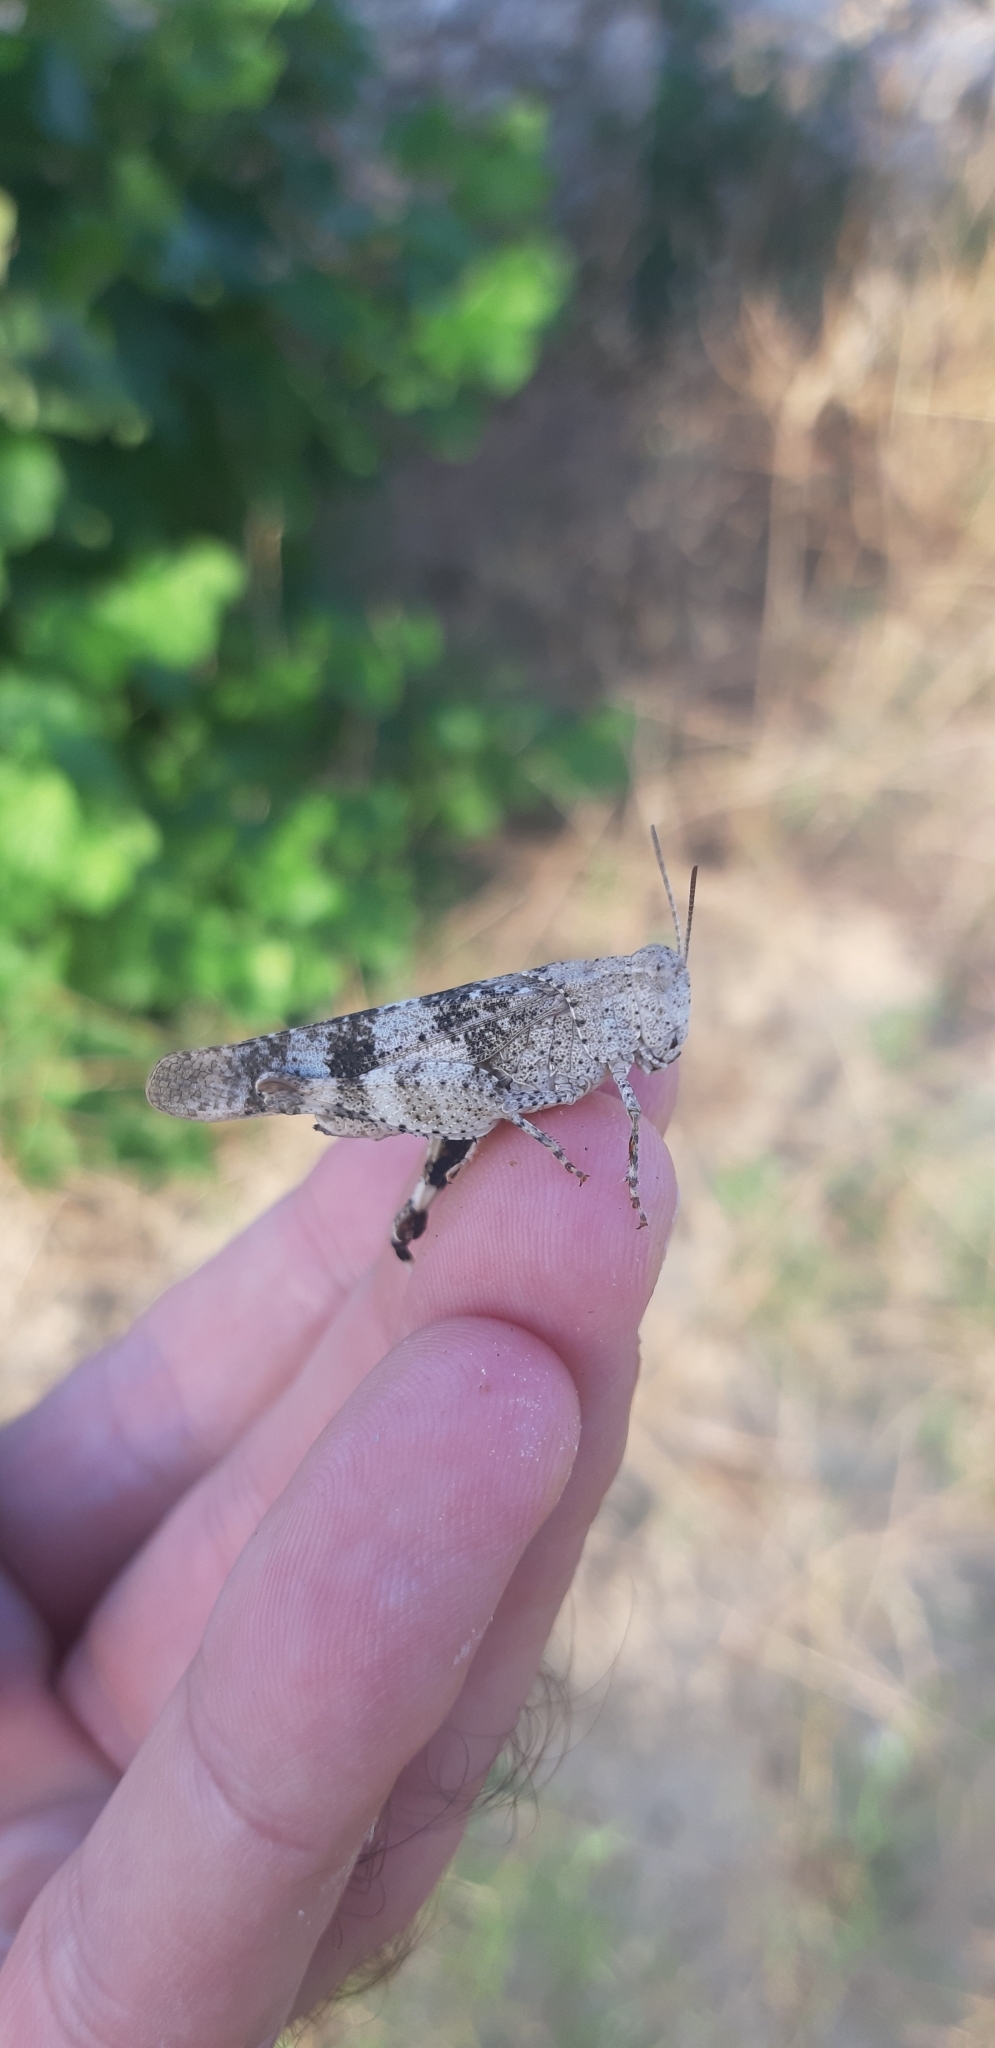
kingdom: Animalia
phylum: Arthropoda
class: Insecta
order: Orthoptera
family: Acrididae
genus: Oedipoda
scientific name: Oedipoda germanica
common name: Red band-winged grasshopper
